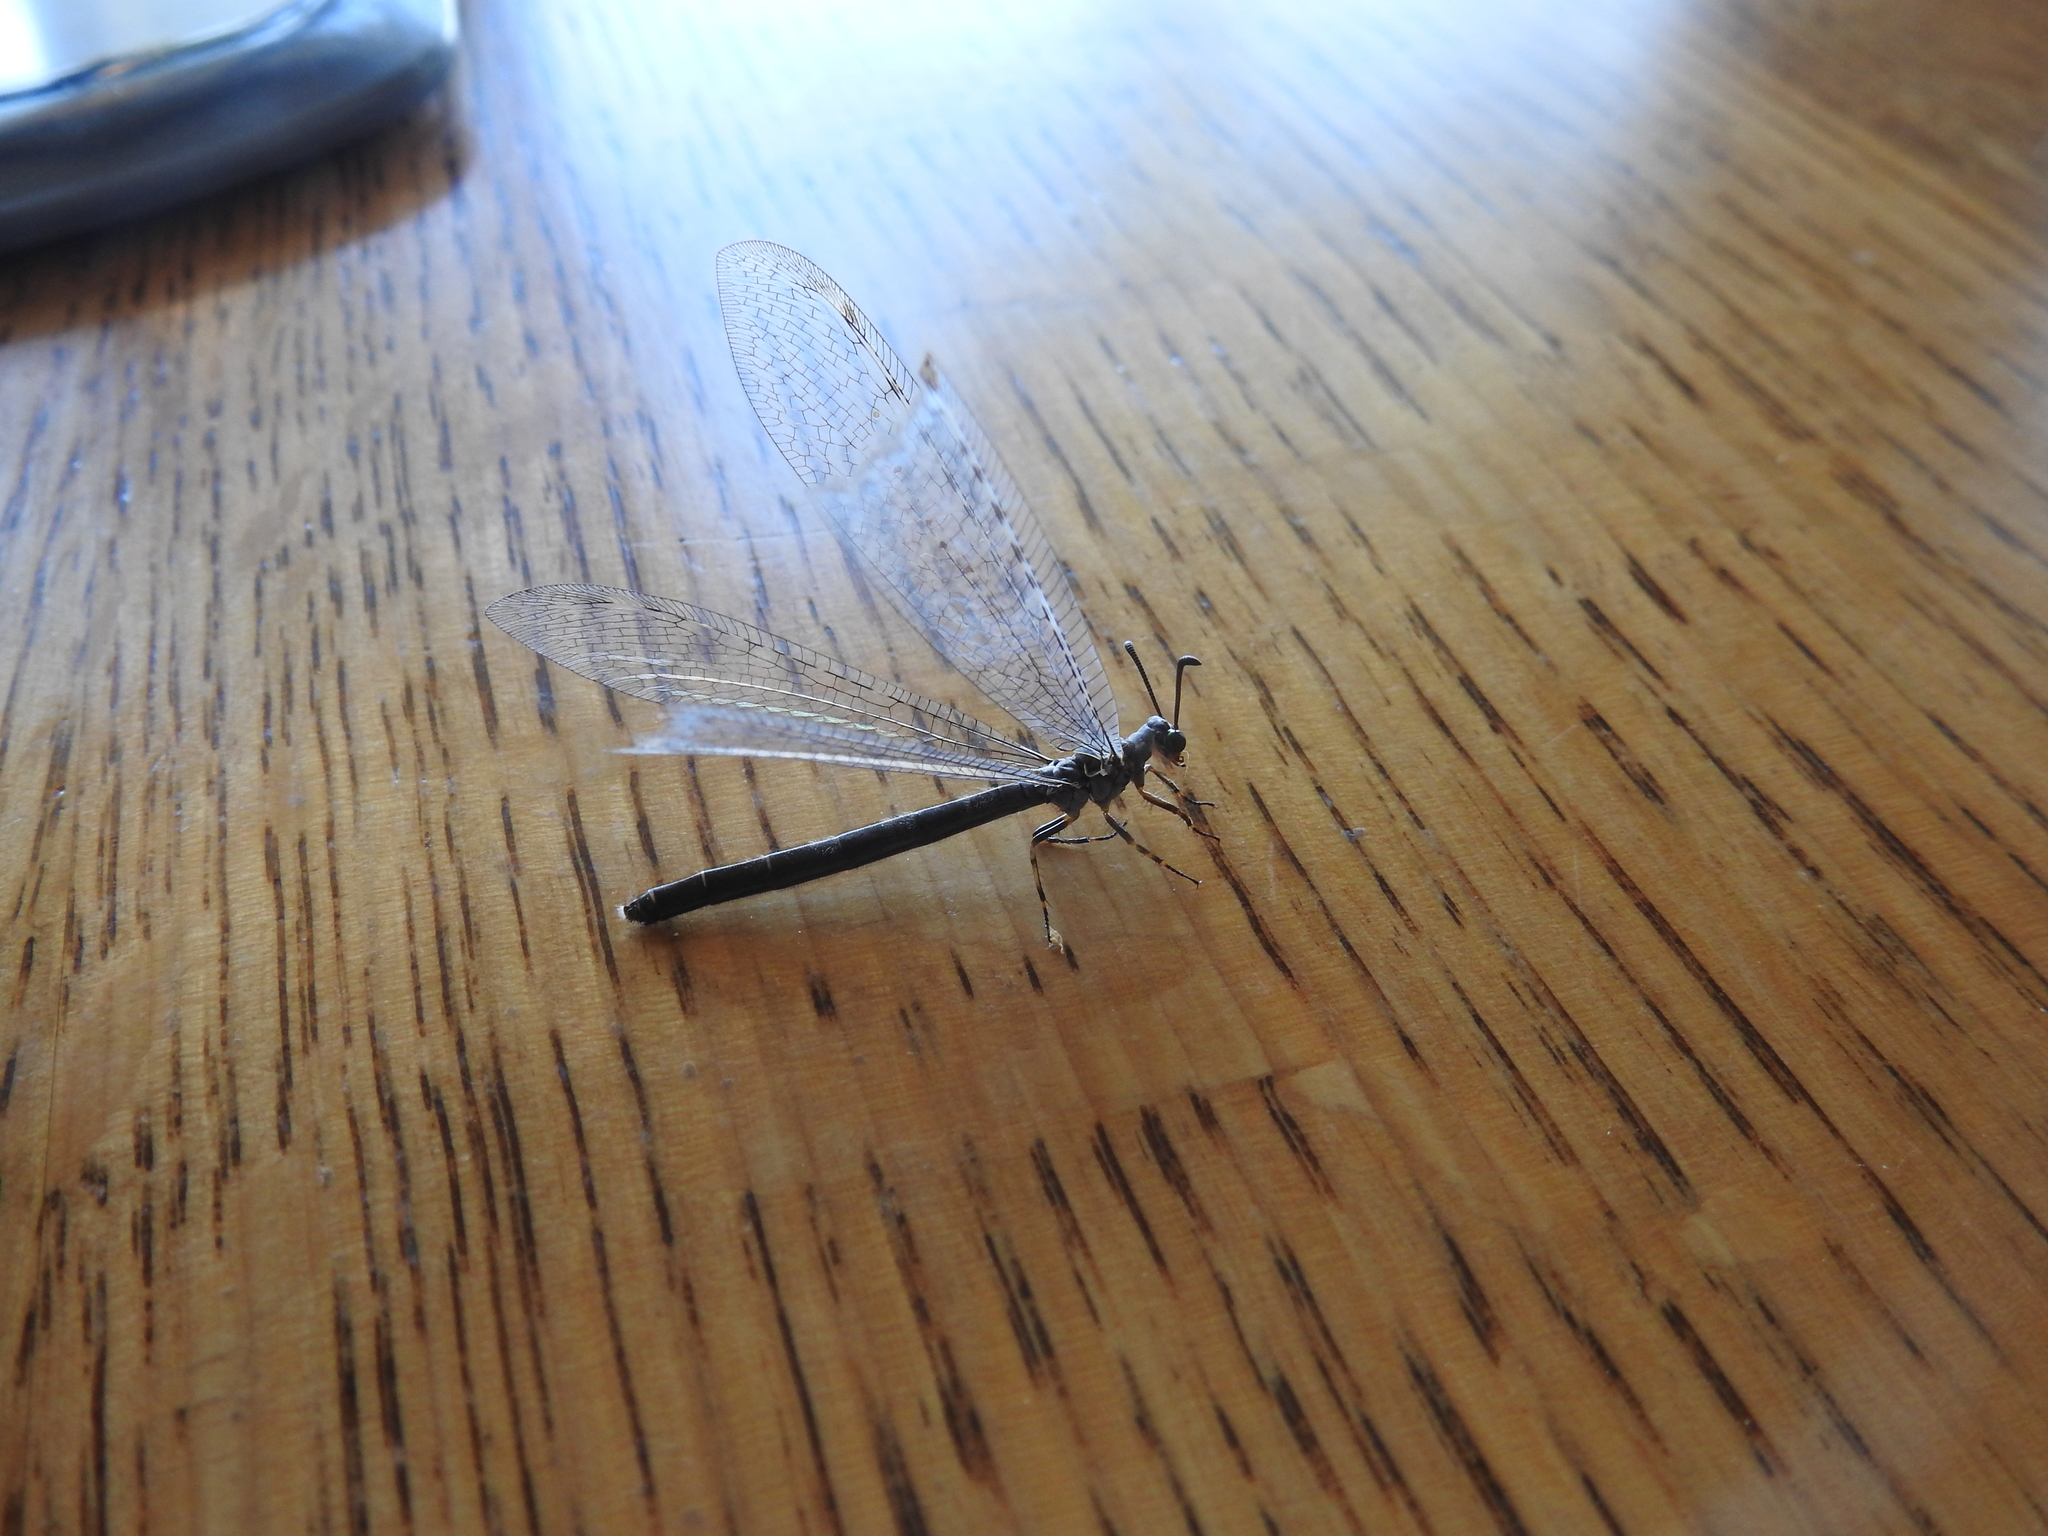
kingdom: Animalia
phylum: Arthropoda
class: Insecta
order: Neuroptera
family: Myrmeleontidae
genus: Myrmeleon
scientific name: Myrmeleon exitialis
